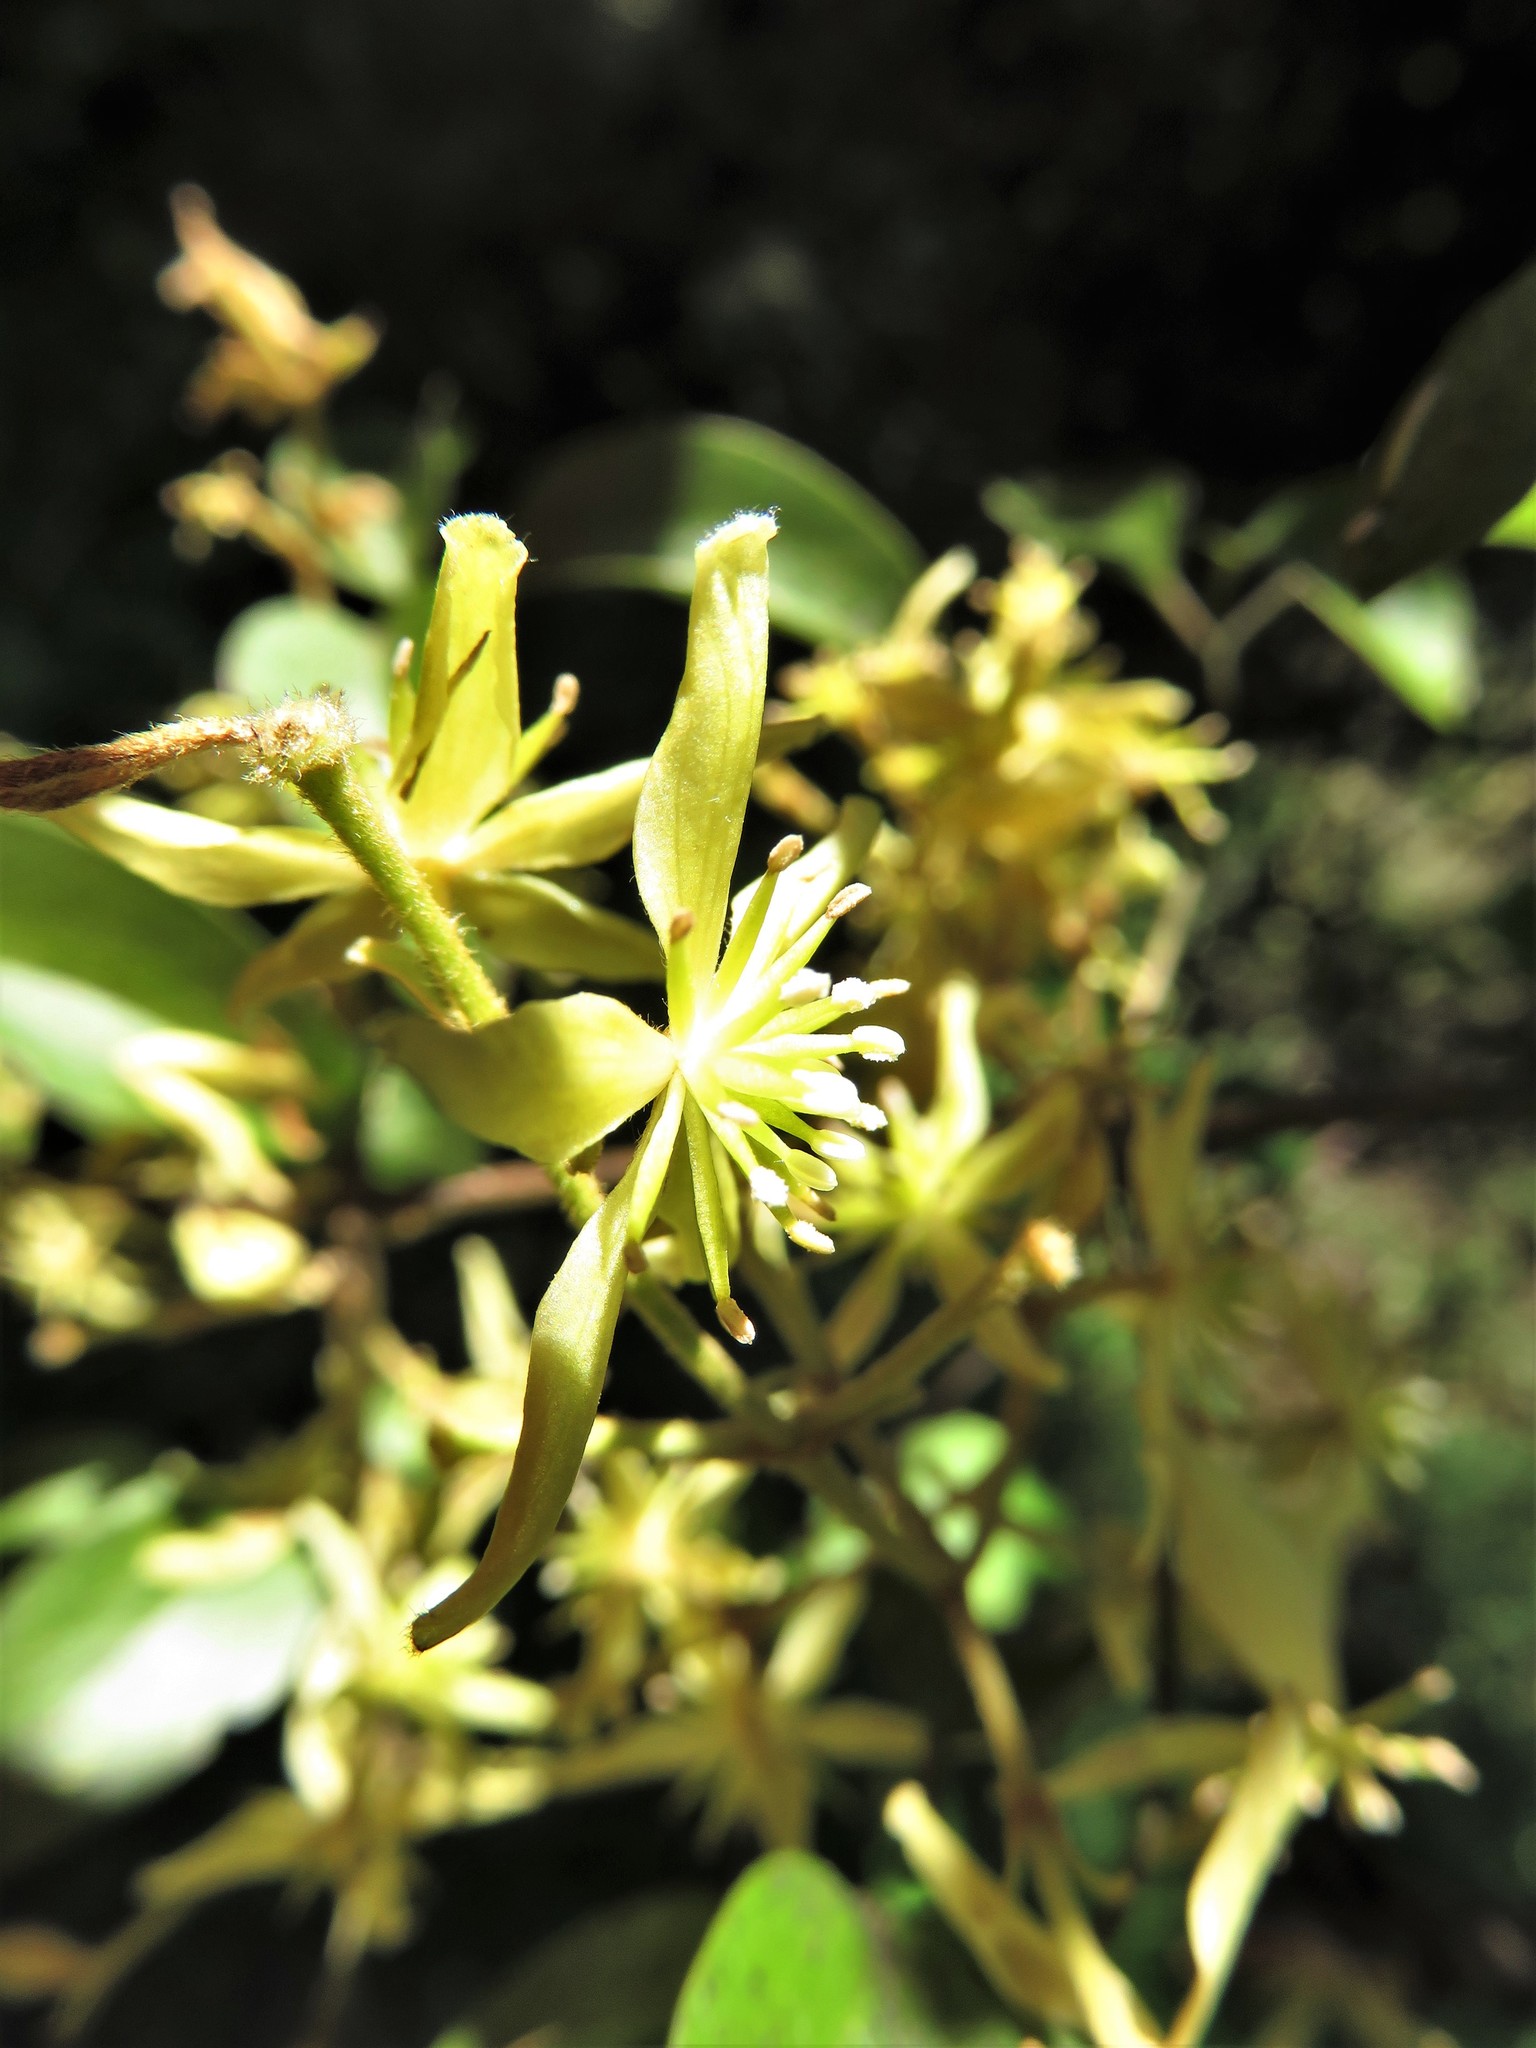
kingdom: Plantae
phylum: Tracheophyta
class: Magnoliopsida
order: Ranunculales
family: Ranunculaceae
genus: Clematis
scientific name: Clematis foetida
